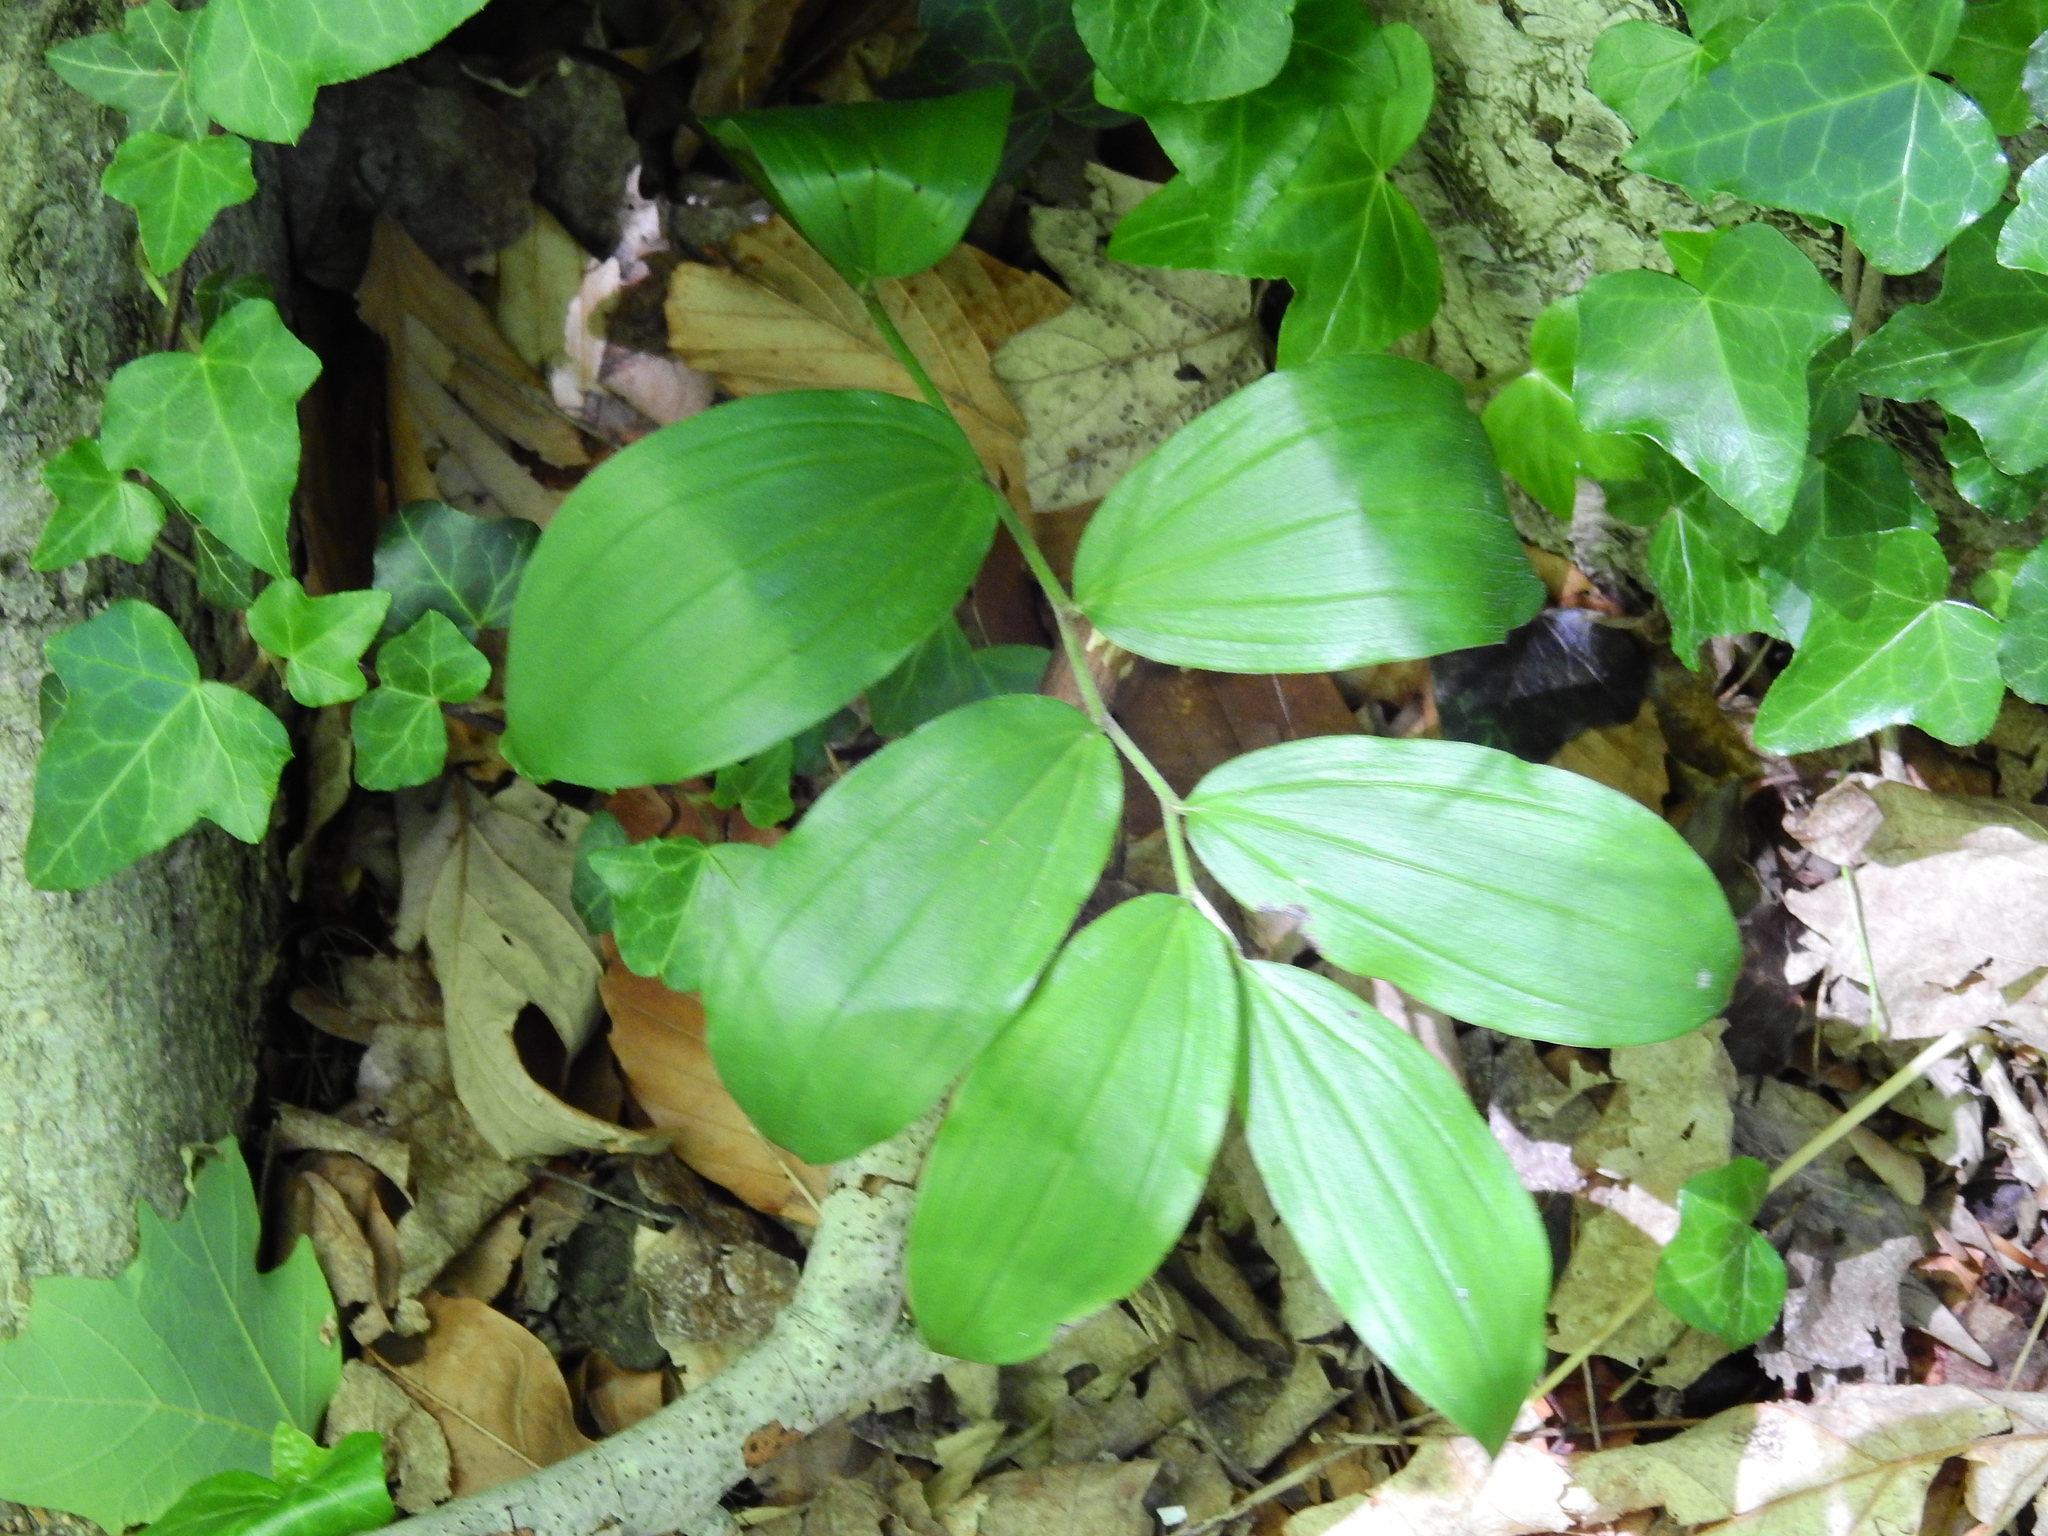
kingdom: Plantae
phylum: Tracheophyta
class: Liliopsida
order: Asparagales
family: Asparagaceae
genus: Maianthemum
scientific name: Maianthemum racemosum
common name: False spikenard
